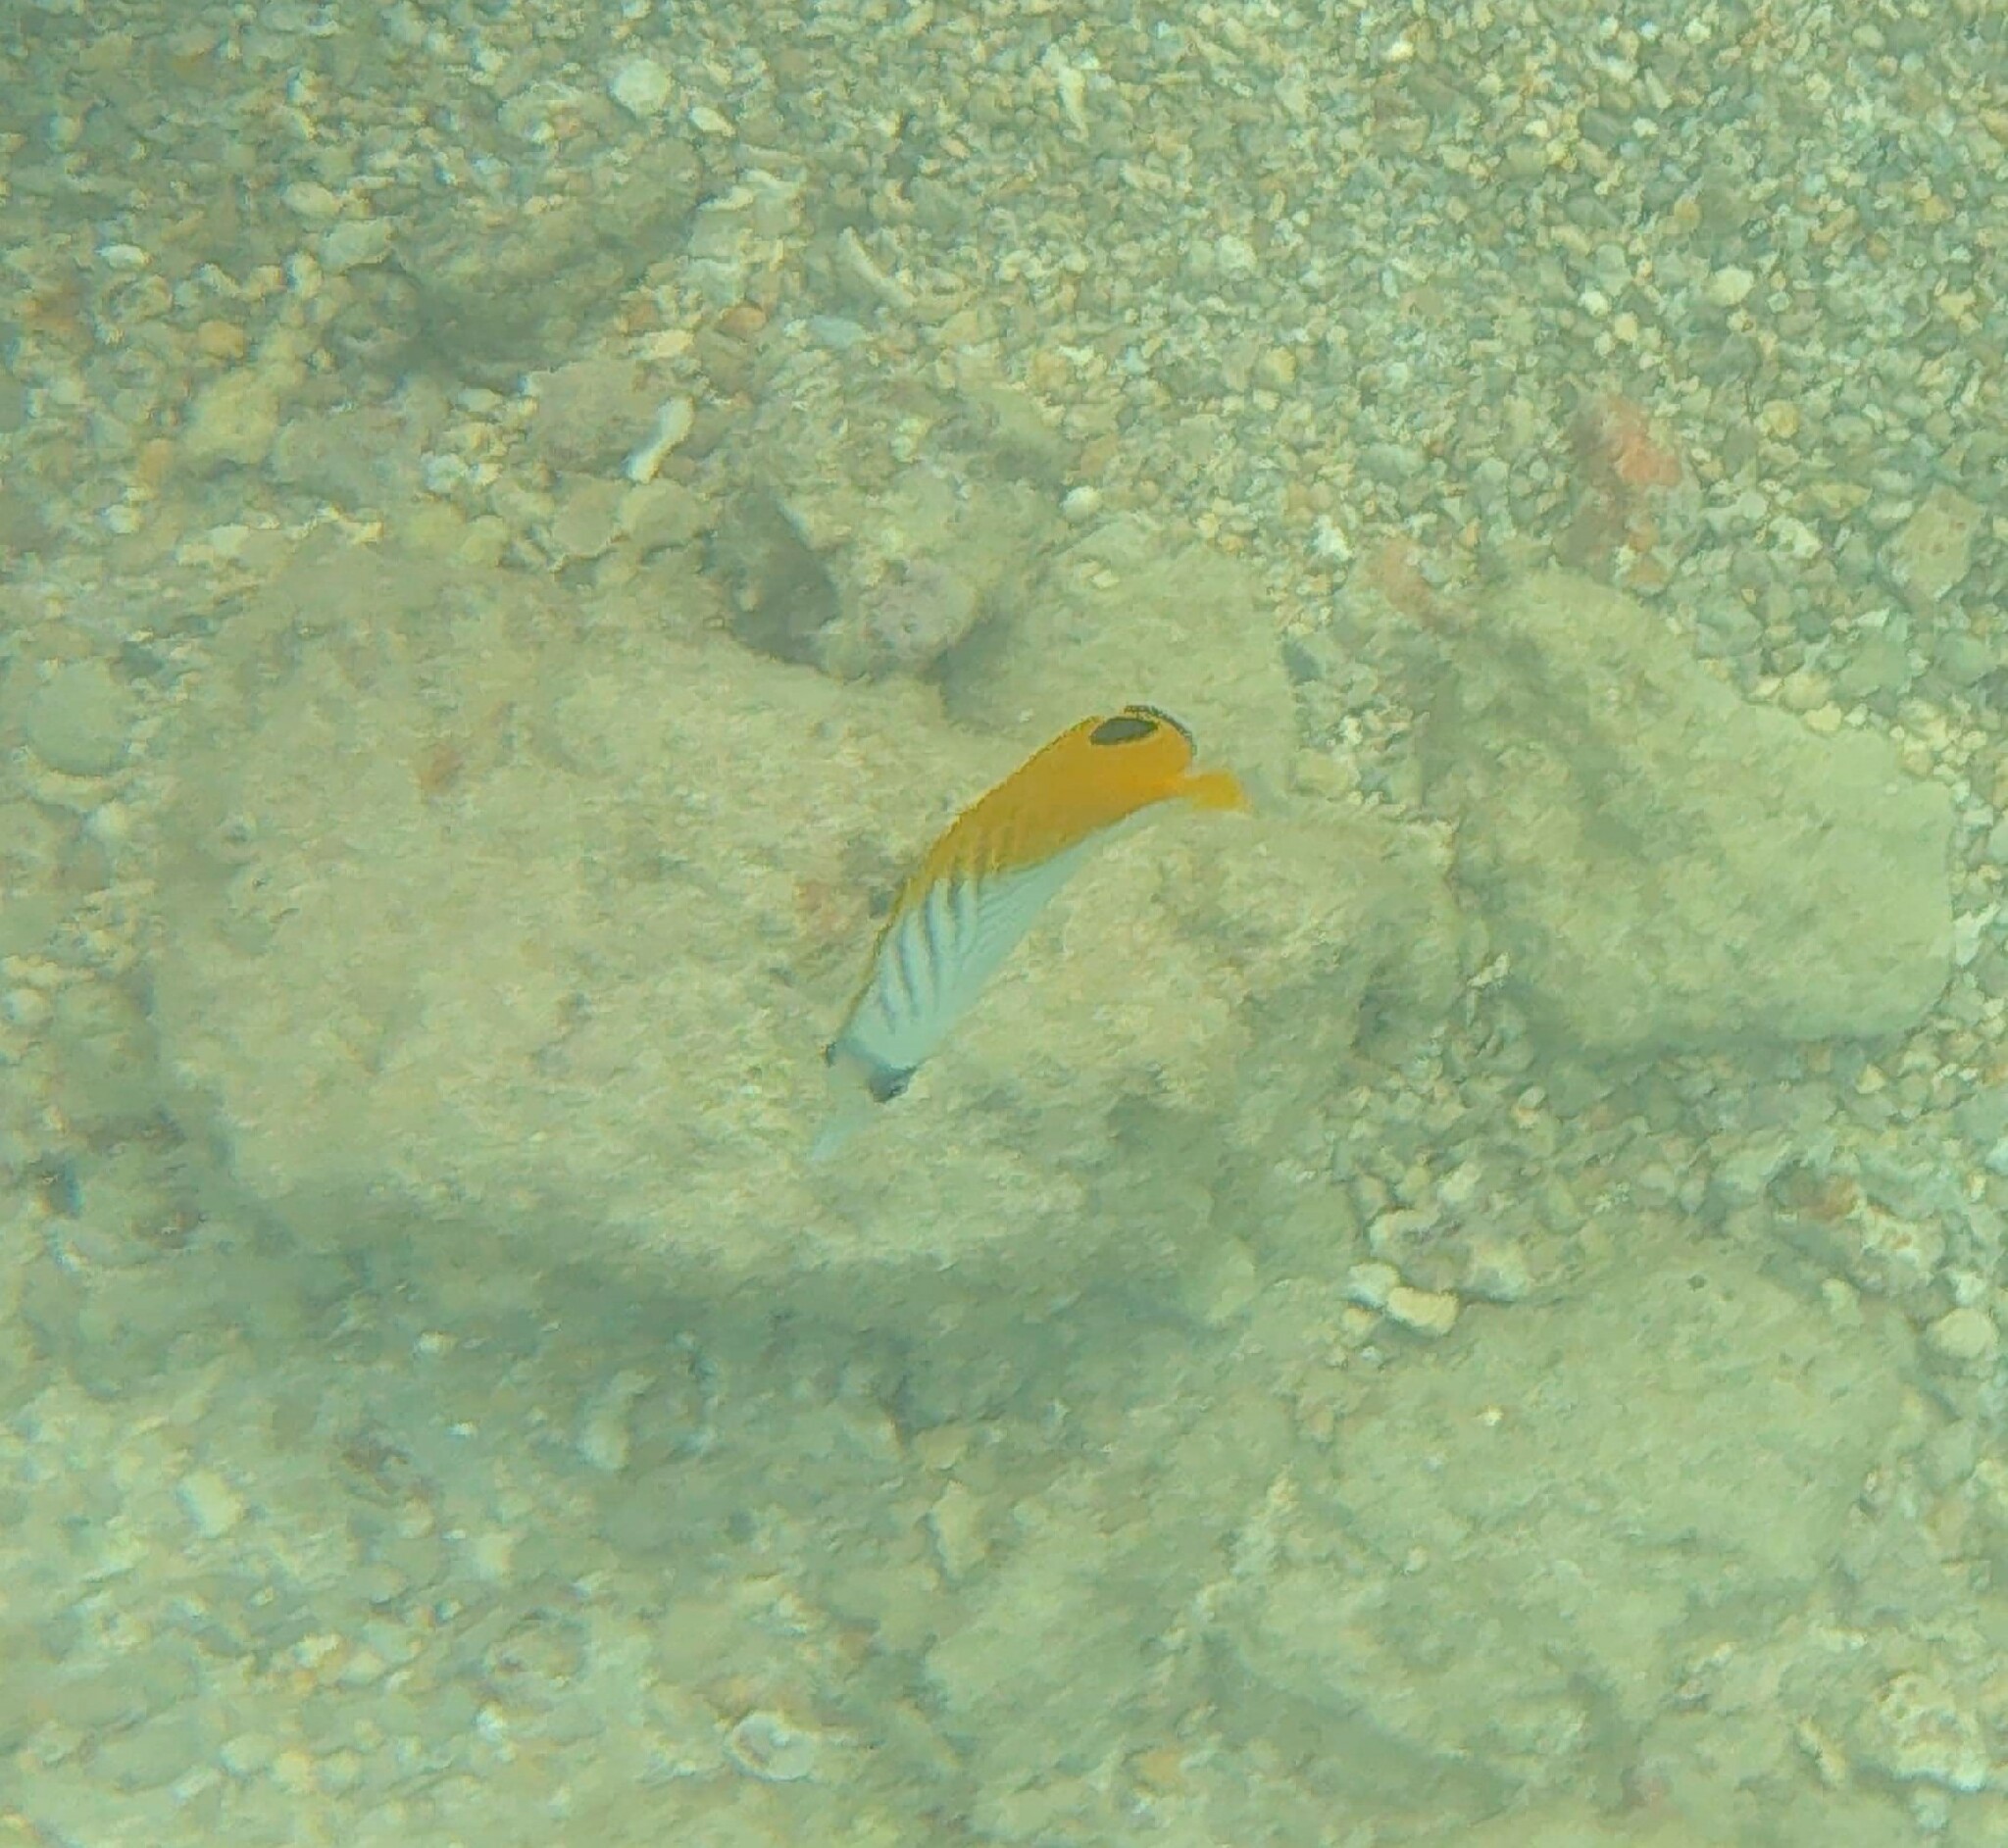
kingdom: Animalia
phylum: Chordata
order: Perciformes
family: Chaetodontidae
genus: Chaetodon
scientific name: Chaetodon auriga
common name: Threadfin butterflyfish
